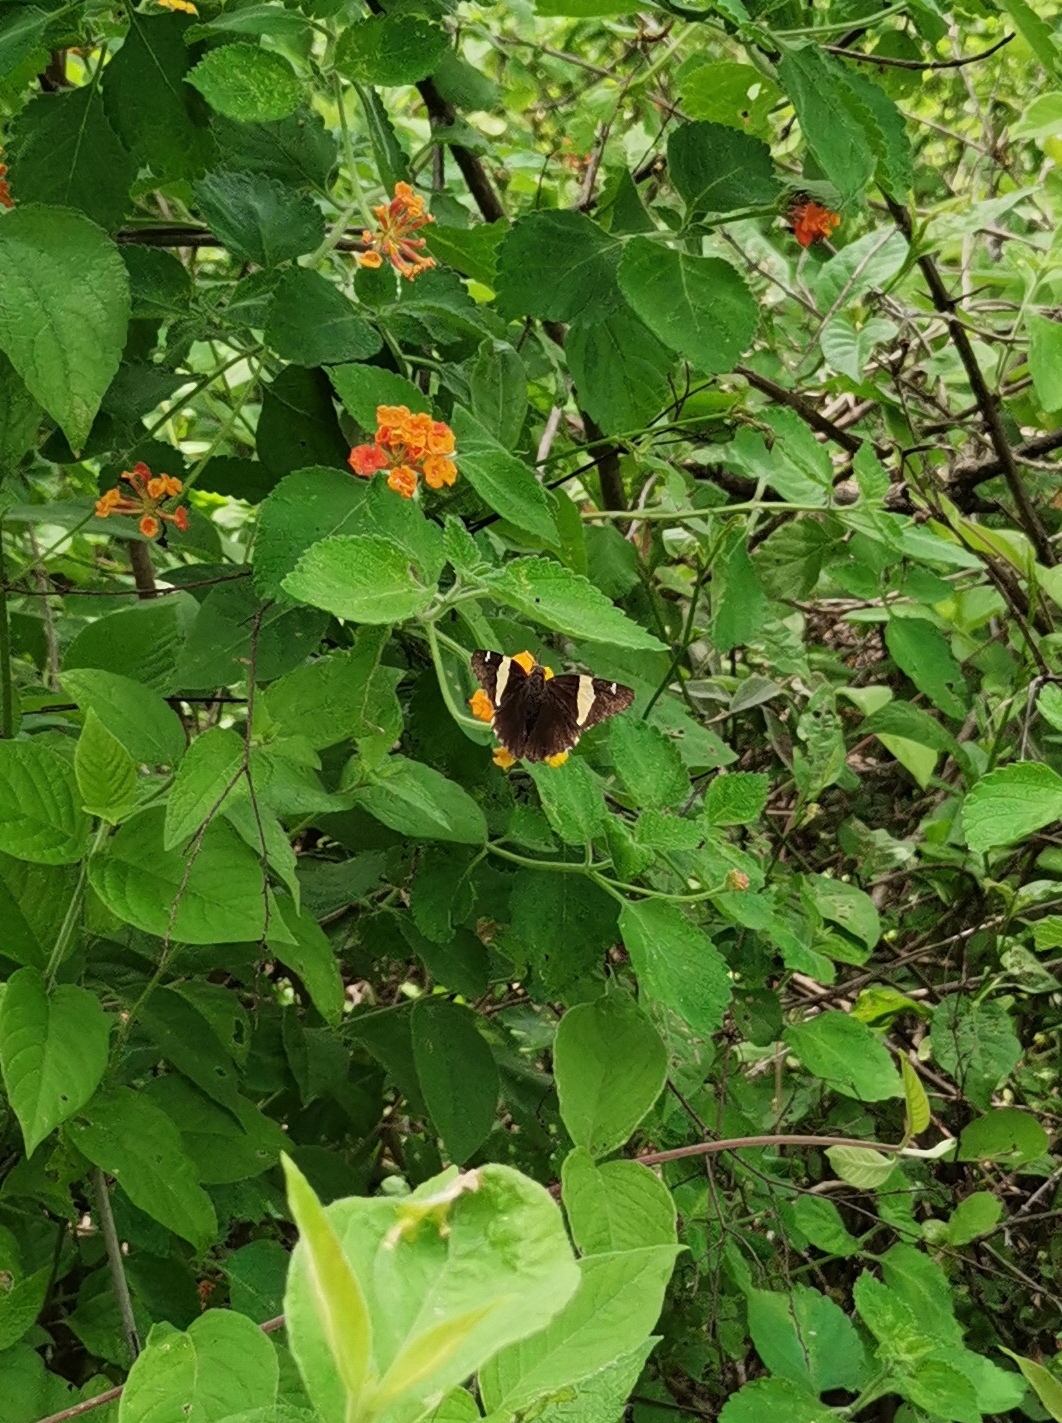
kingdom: Plantae
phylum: Tracheophyta
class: Magnoliopsida
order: Lamiales
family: Verbenaceae
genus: Lantana
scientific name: Lantana camara
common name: Lantana
